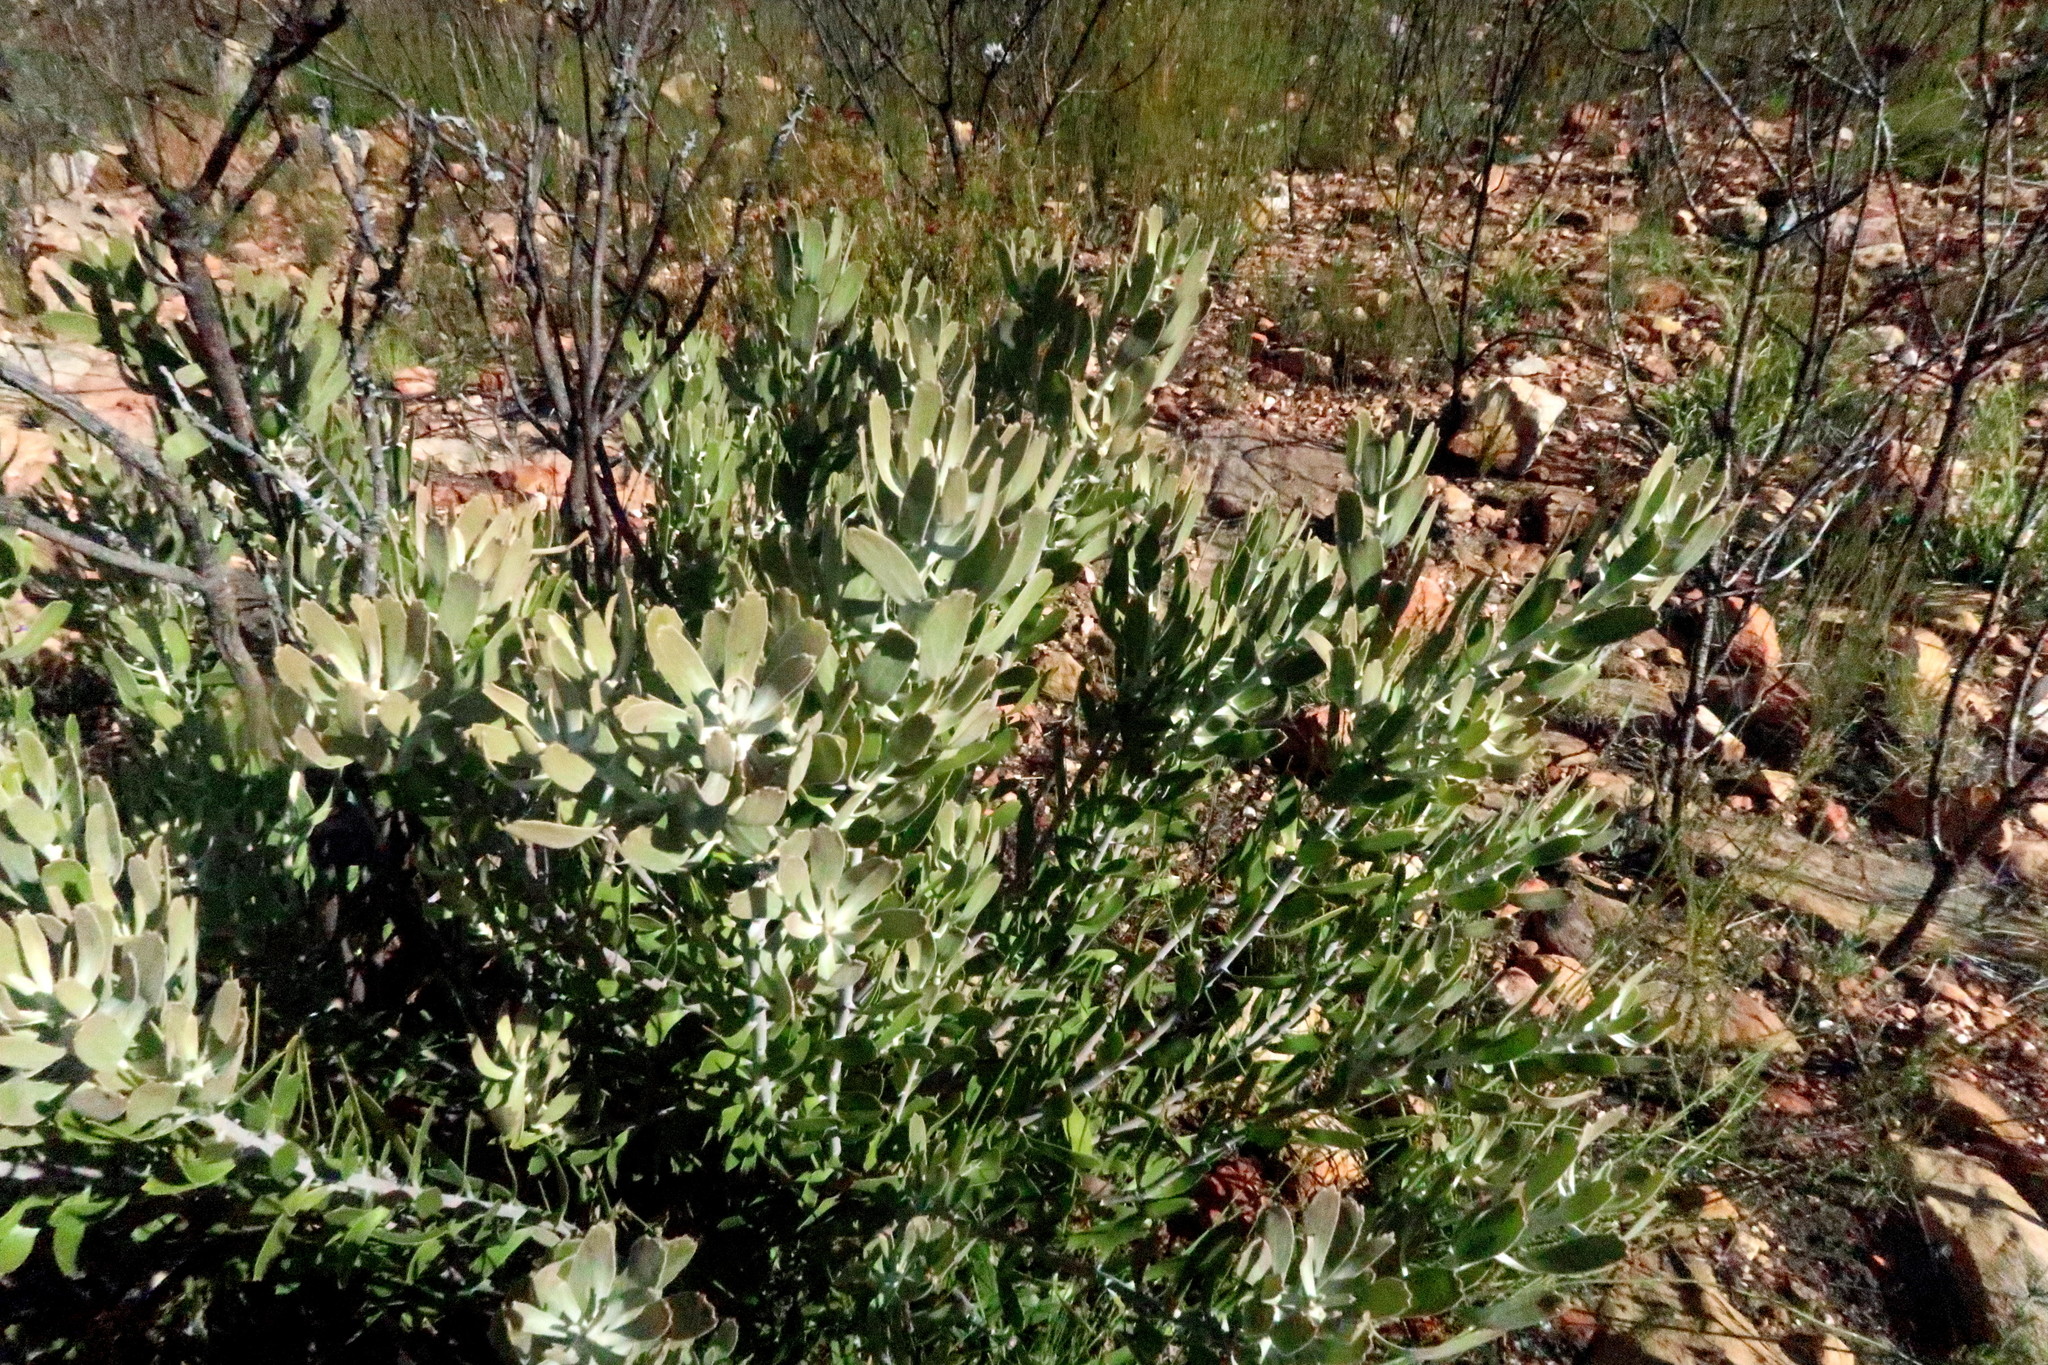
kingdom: Plantae
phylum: Tracheophyta
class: Magnoliopsida
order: Proteales
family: Proteaceae
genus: Leucospermum
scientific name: Leucospermum cuneiforme
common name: Common pincushion
